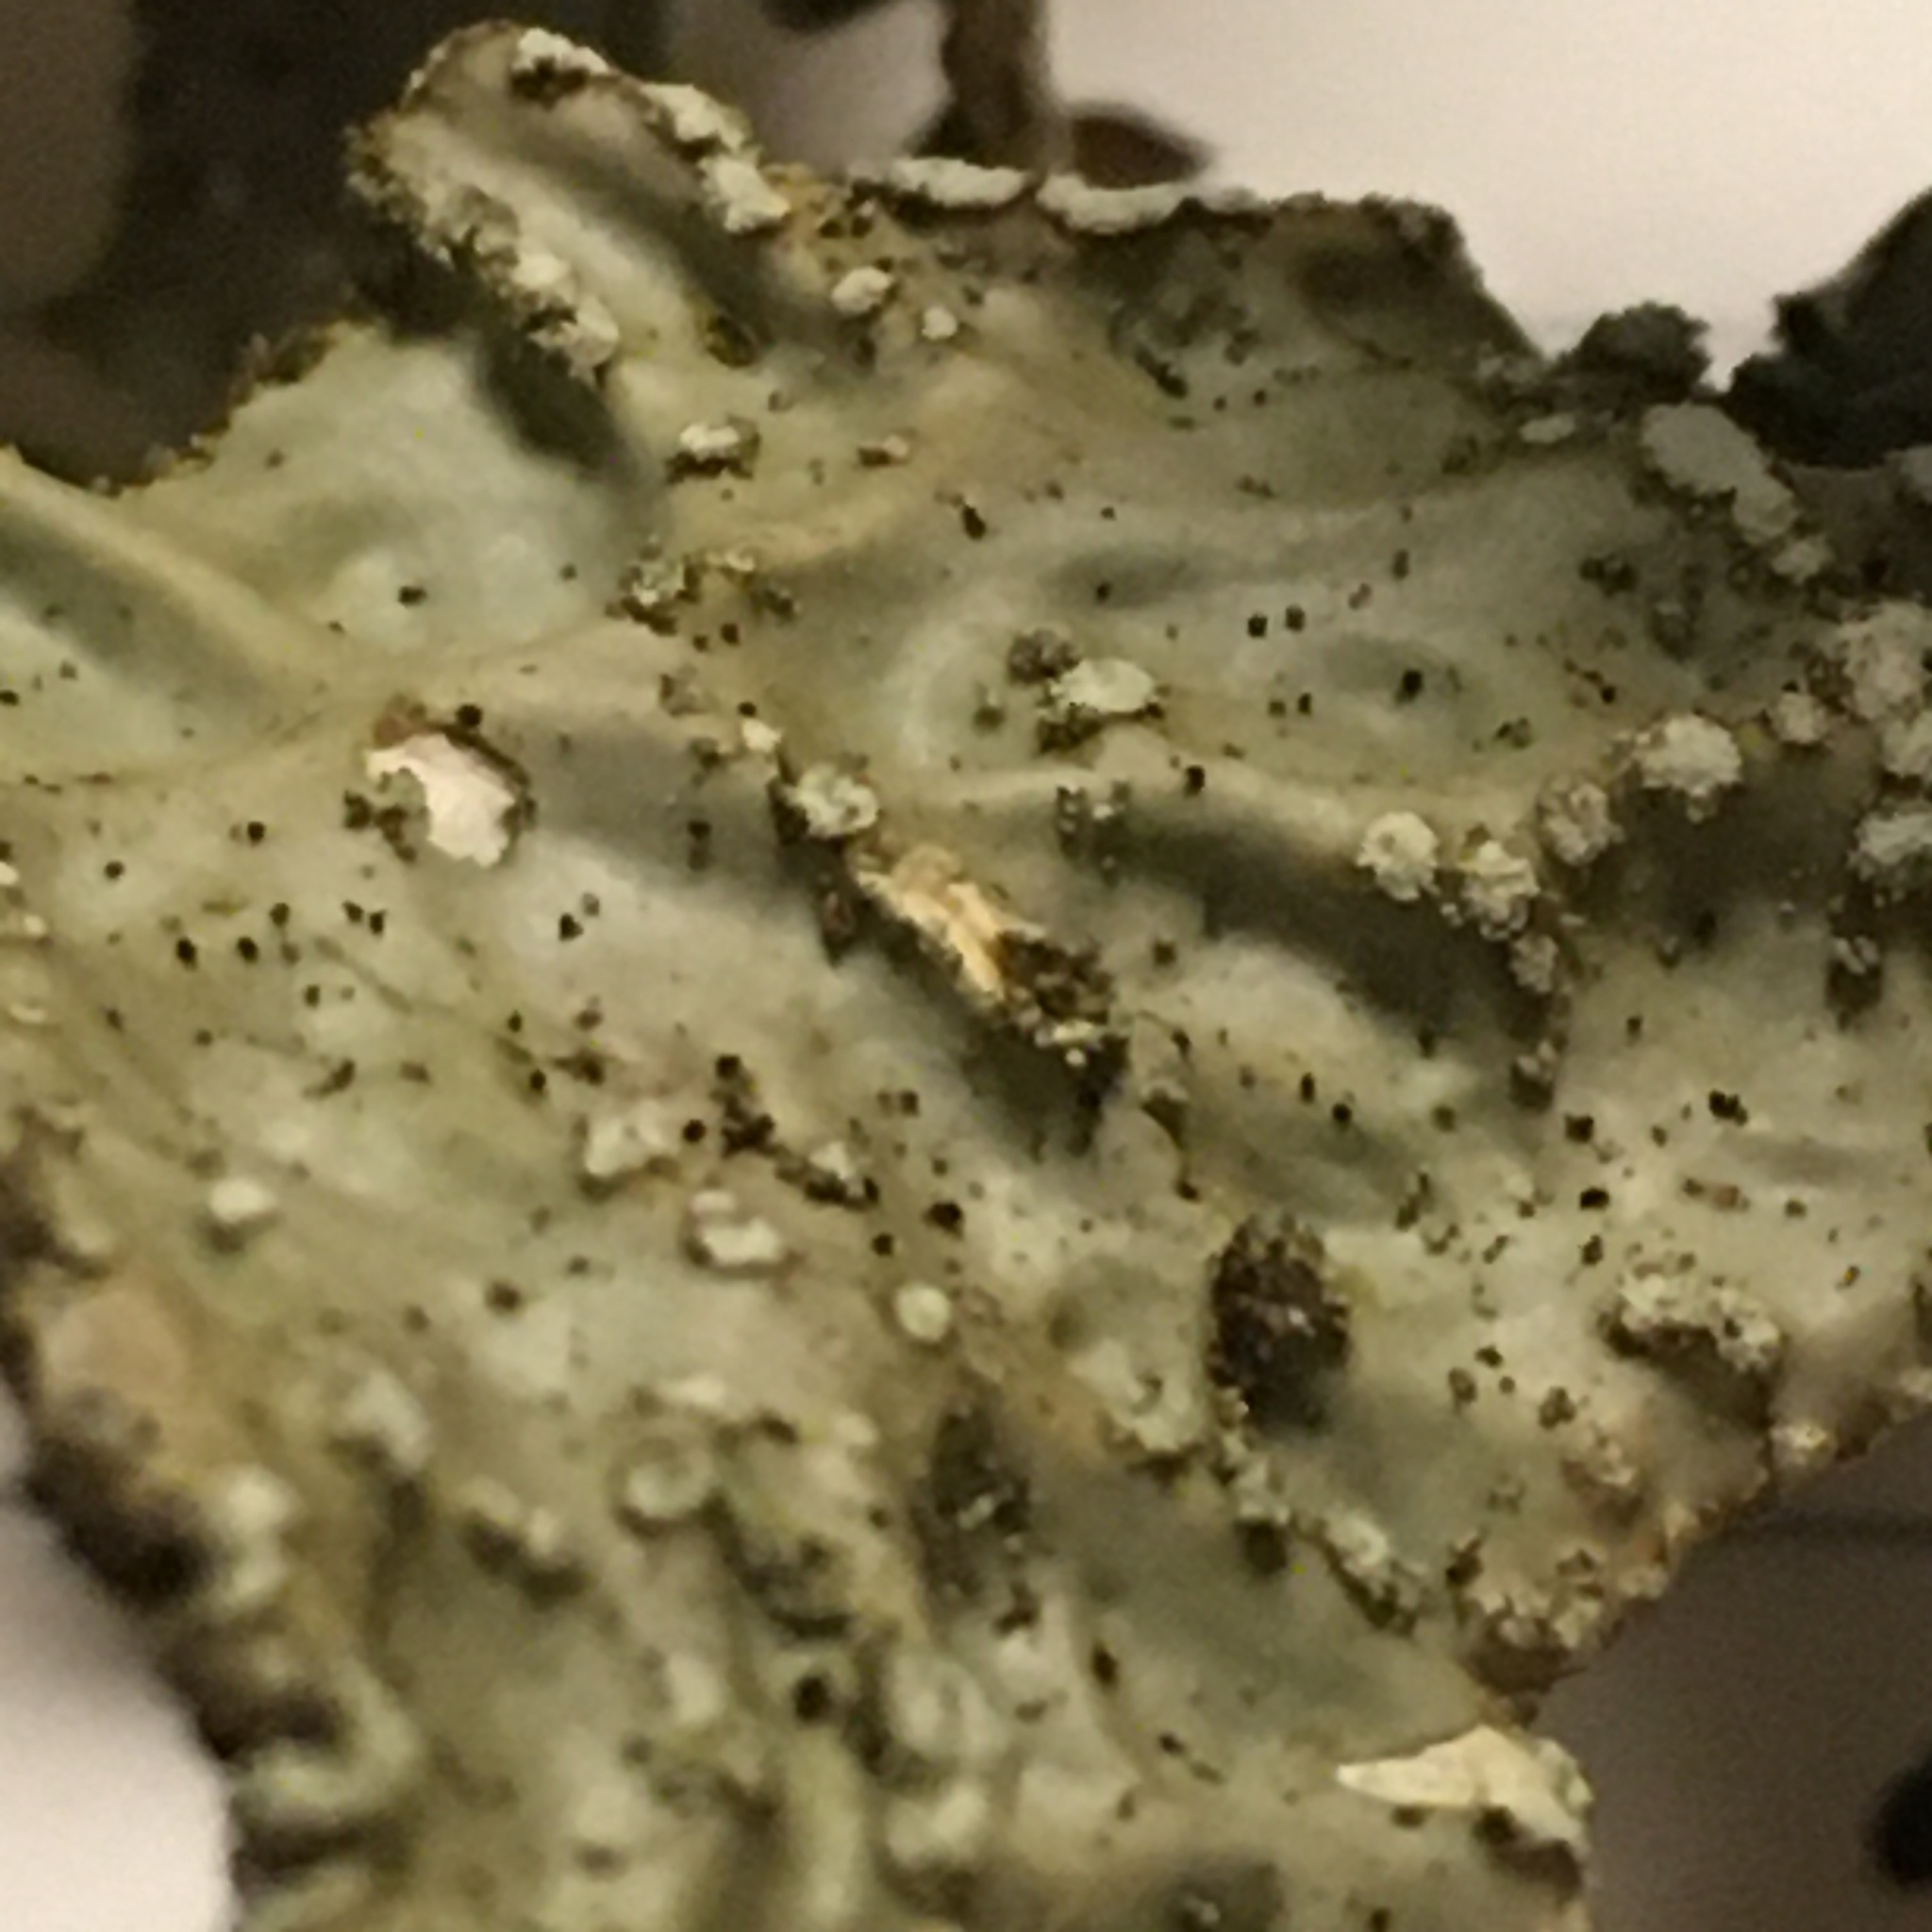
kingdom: Fungi
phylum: Ascomycota
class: Lecanoromycetes
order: Peltigerales
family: Lobariaceae
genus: Lobaria
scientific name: Lobaria pulmonaria
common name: Lungwort
